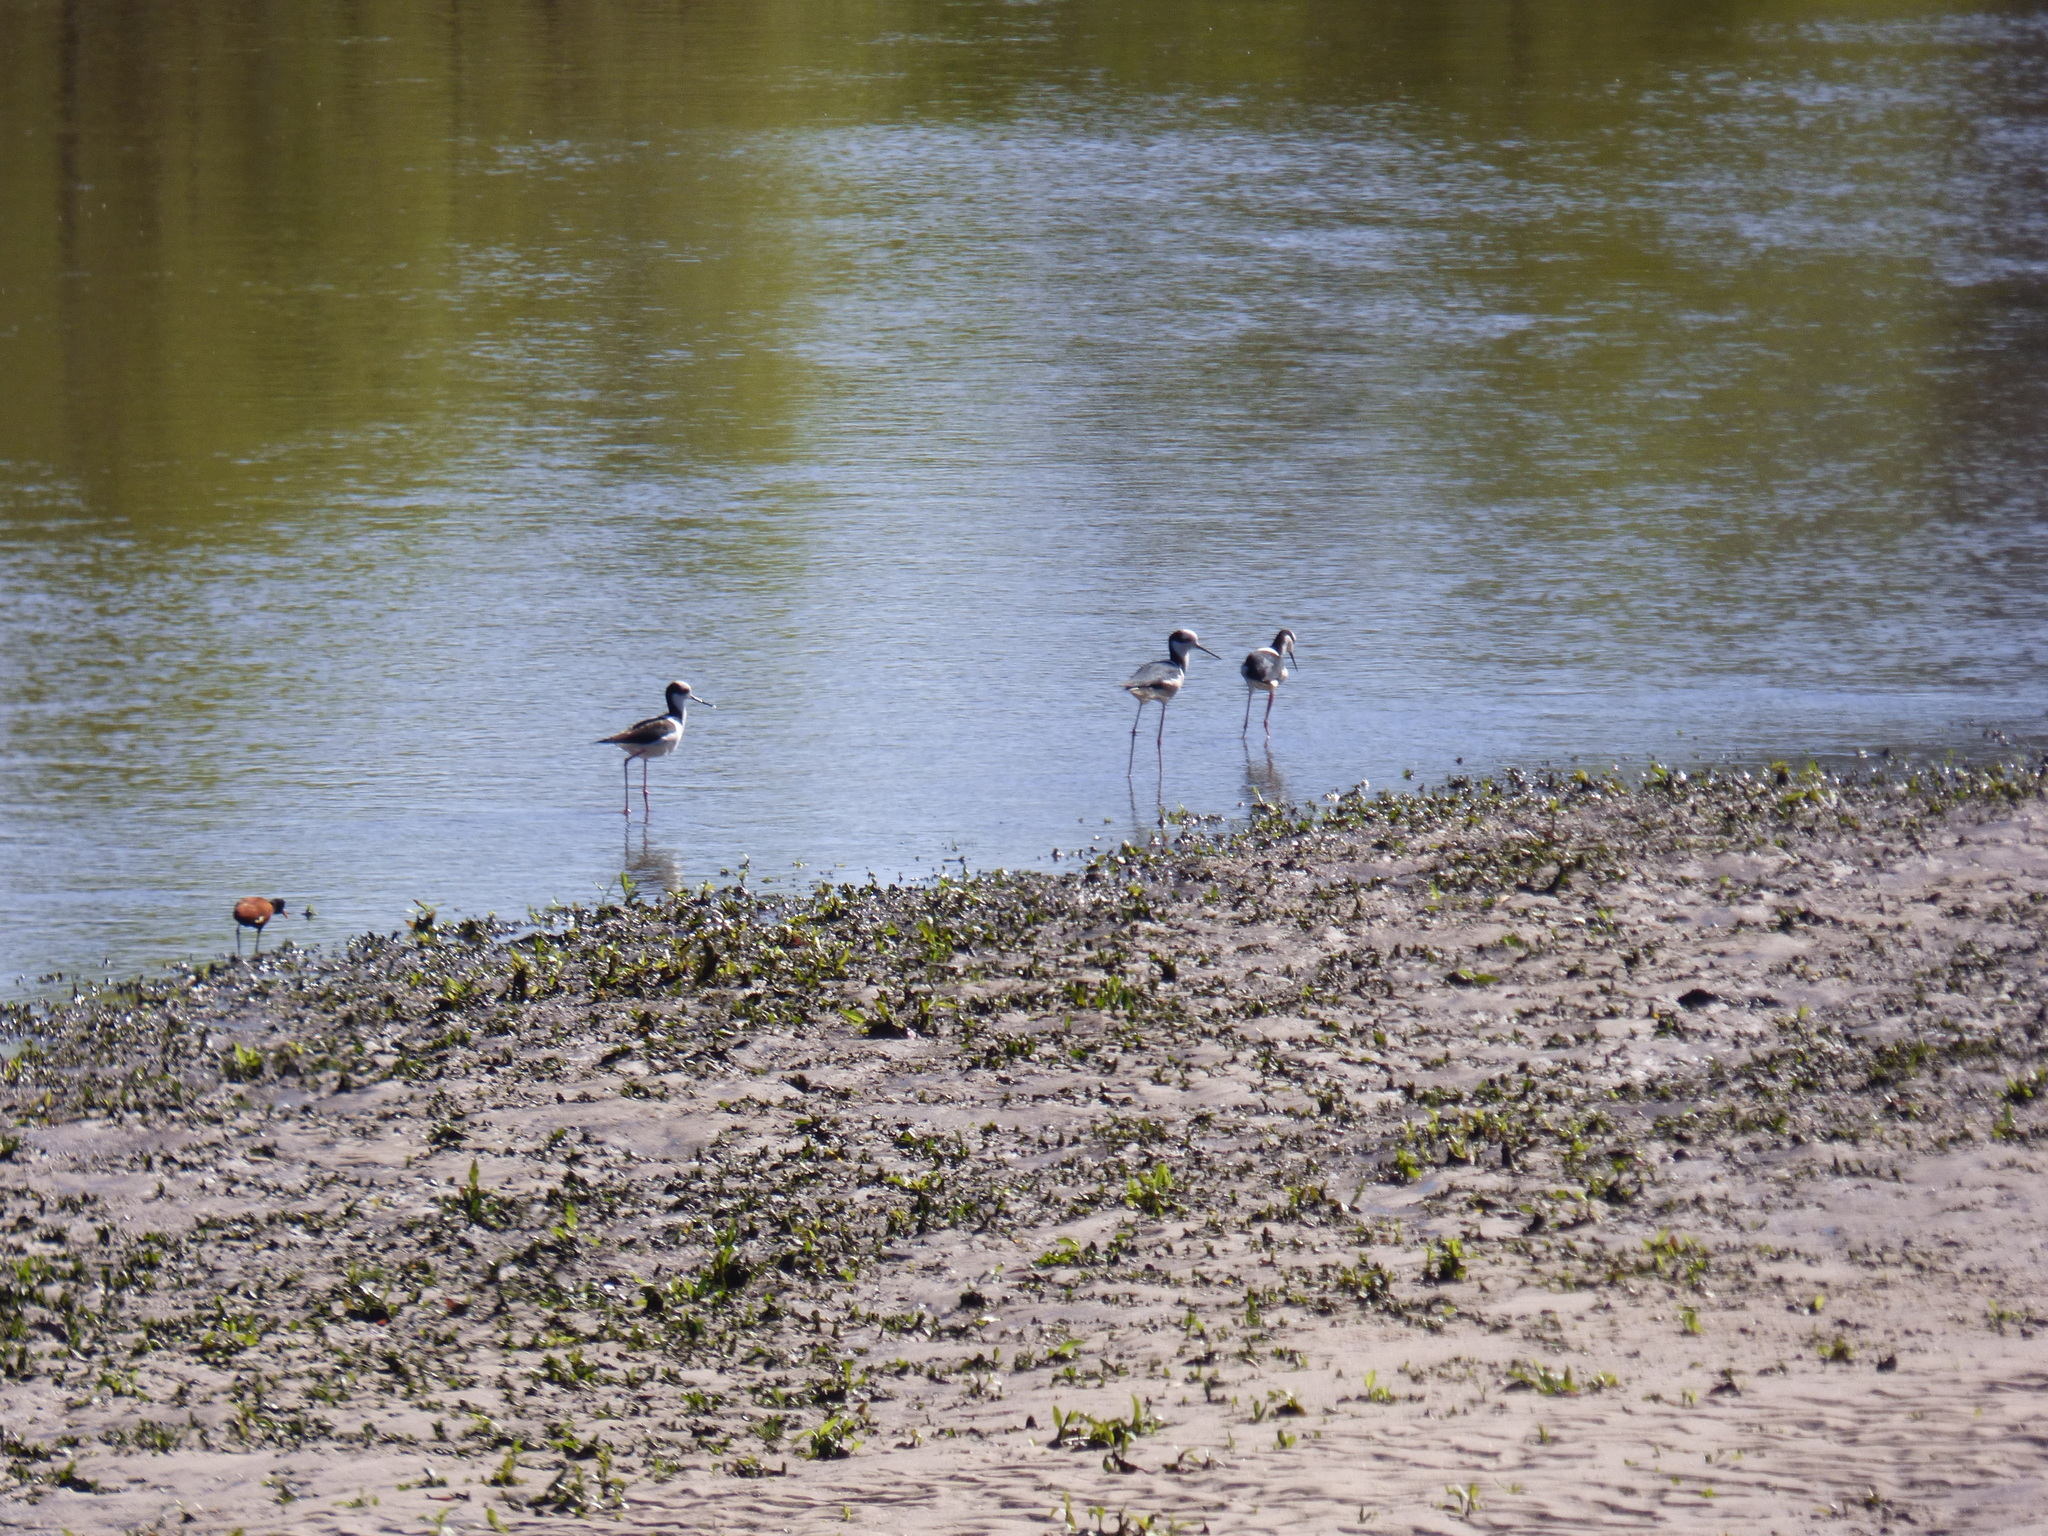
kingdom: Animalia
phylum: Chordata
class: Aves
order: Charadriiformes
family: Recurvirostridae
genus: Himantopus
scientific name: Himantopus mexicanus
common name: Black-necked stilt
